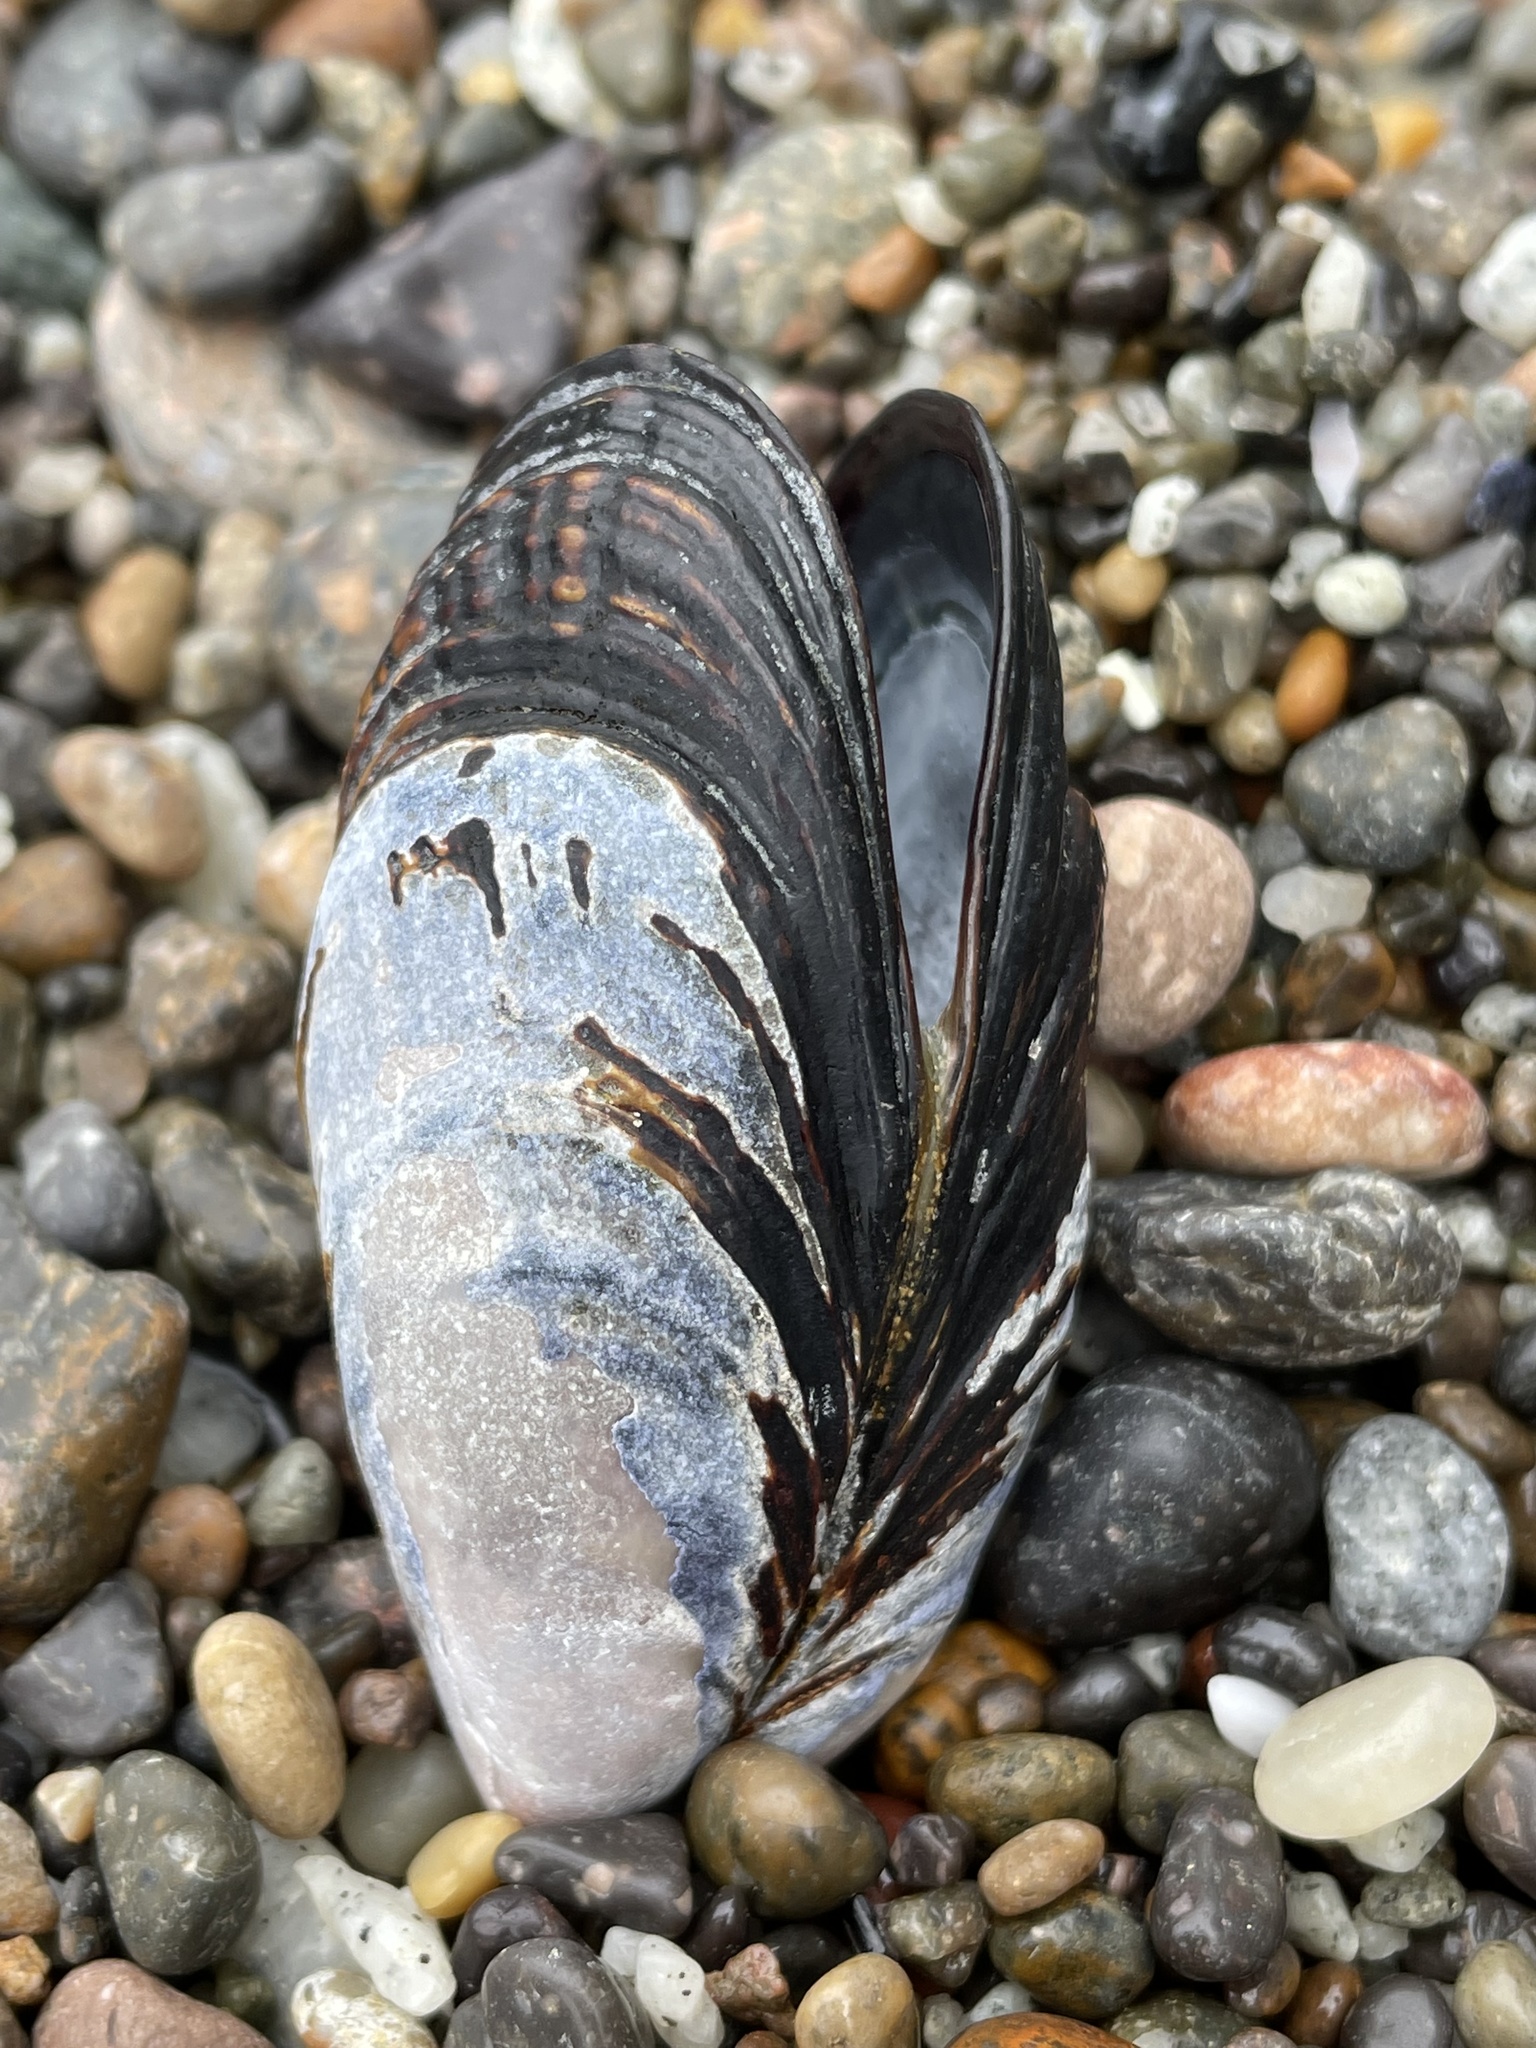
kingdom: Animalia
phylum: Mollusca
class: Bivalvia
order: Mytilida
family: Mytilidae
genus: Mytilus
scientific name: Mytilus californianus
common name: California mussel
